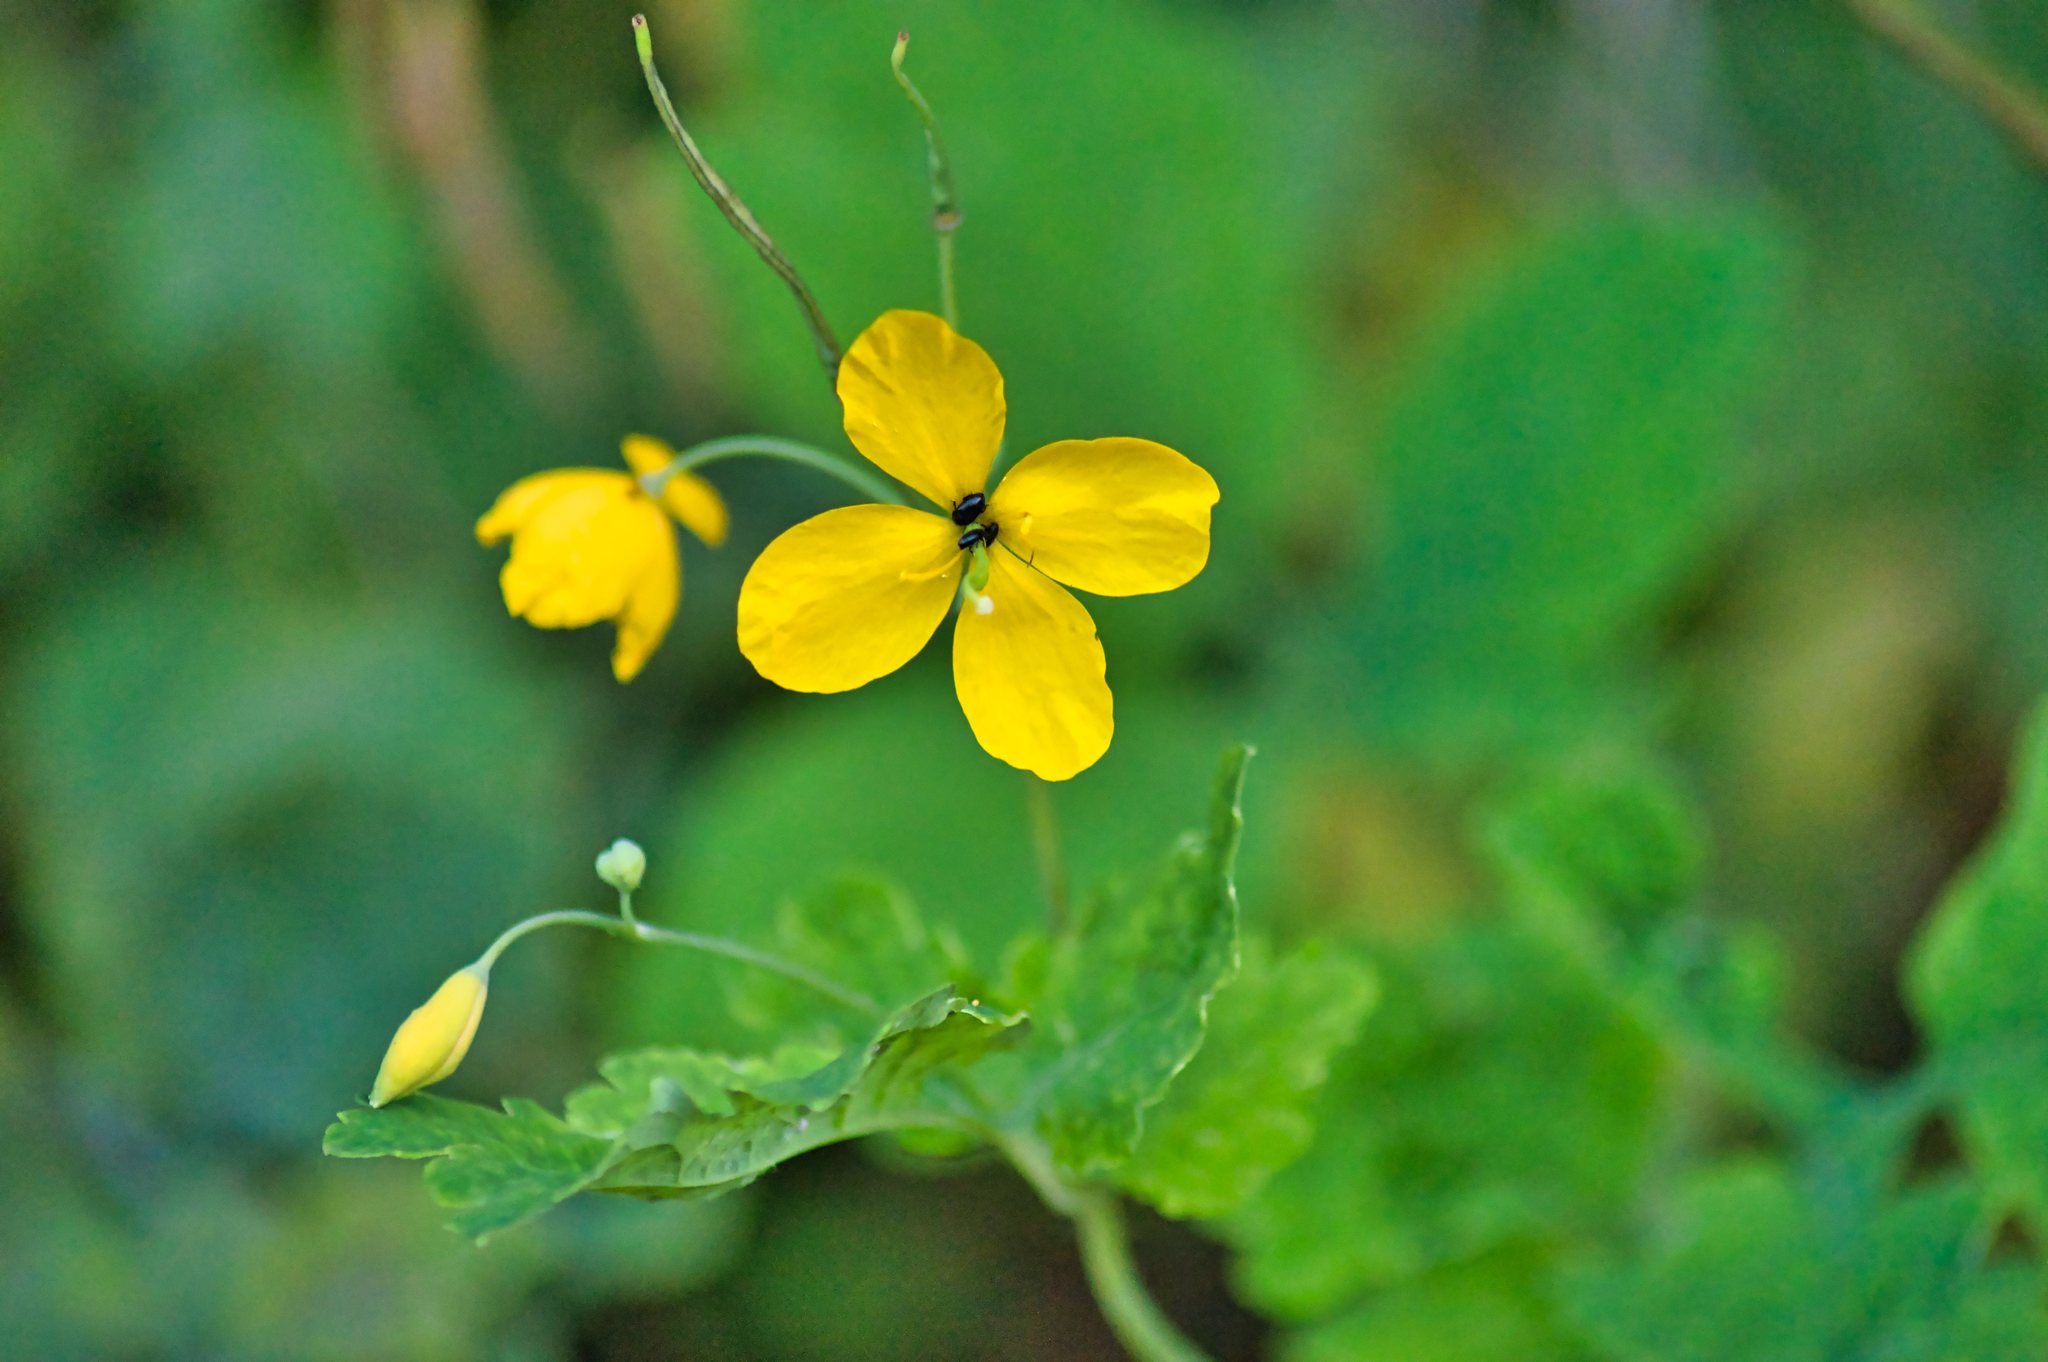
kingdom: Plantae
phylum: Tracheophyta
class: Magnoliopsida
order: Ranunculales
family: Papaveraceae
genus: Chelidonium
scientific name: Chelidonium majus
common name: Greater celandine
